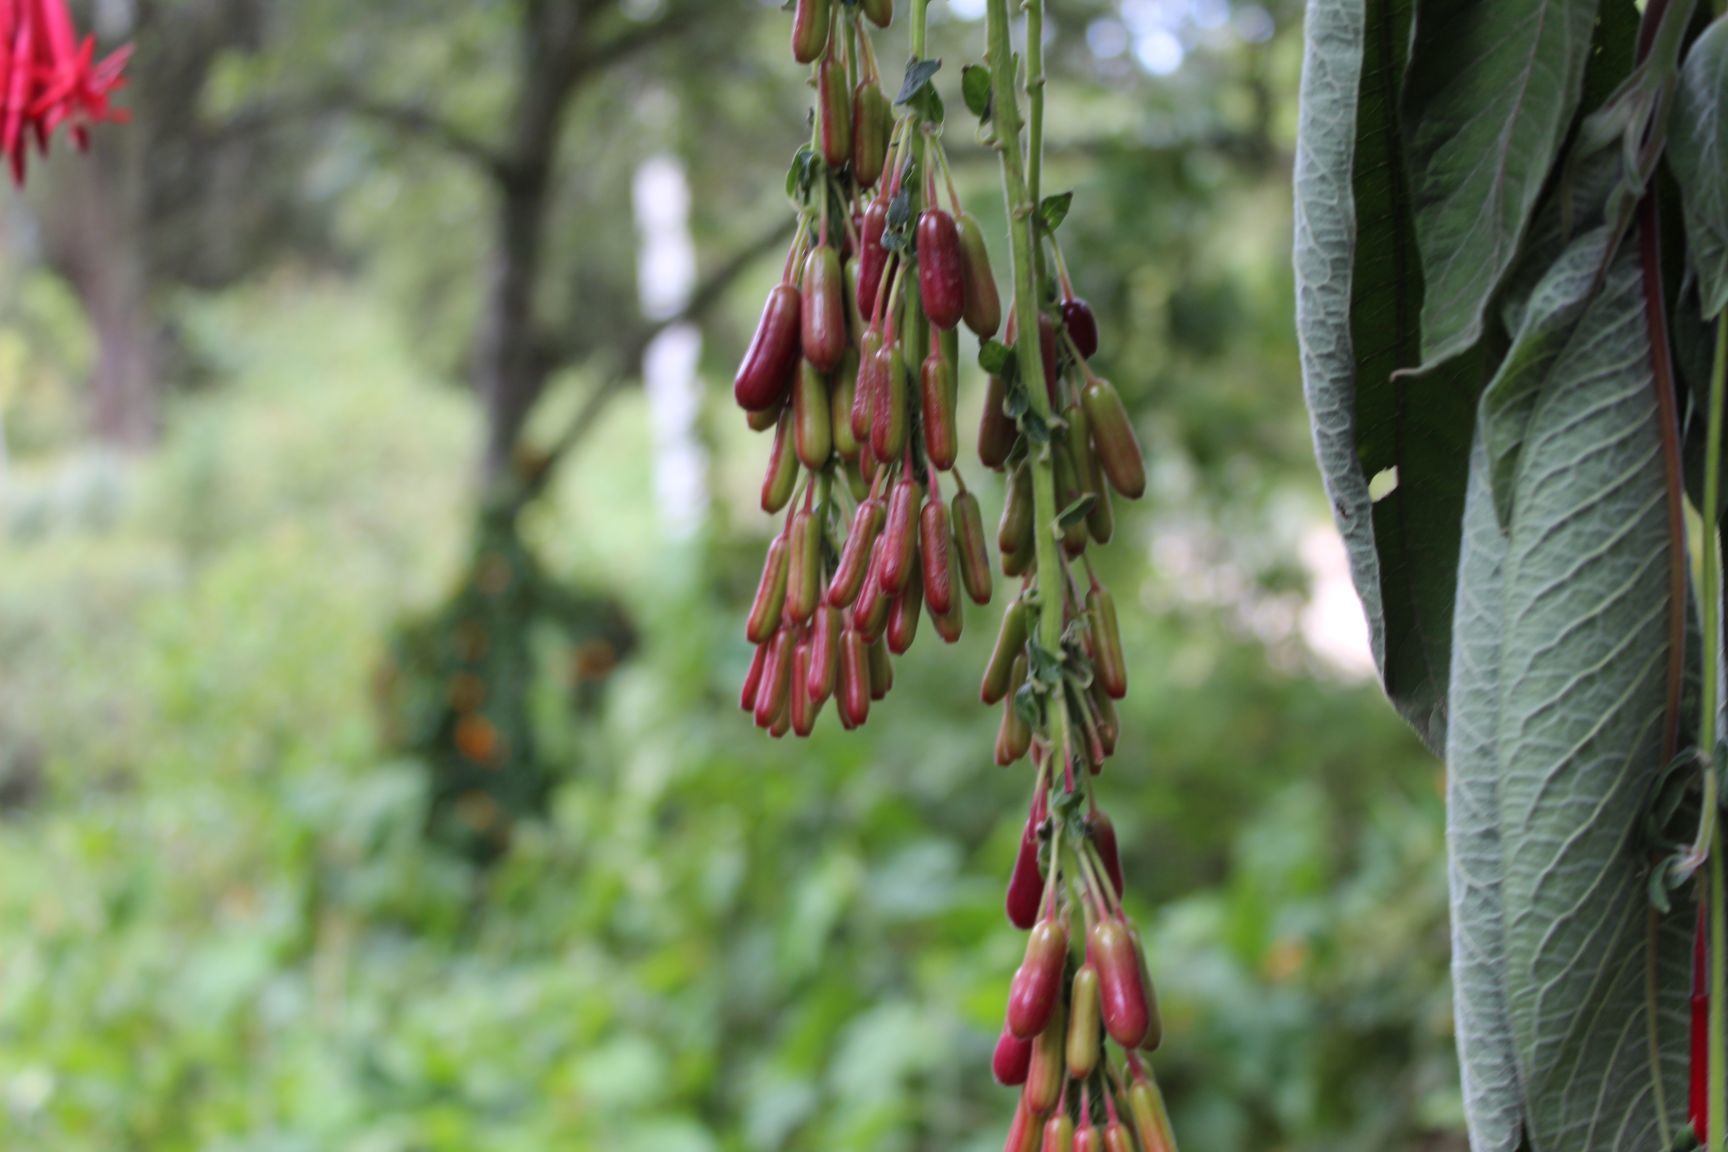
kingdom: Plantae
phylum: Tracheophyta
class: Magnoliopsida
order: Myrtales
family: Onagraceae
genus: Fuchsia
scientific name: Fuchsia boliviana
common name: Bolivian fuchsia
